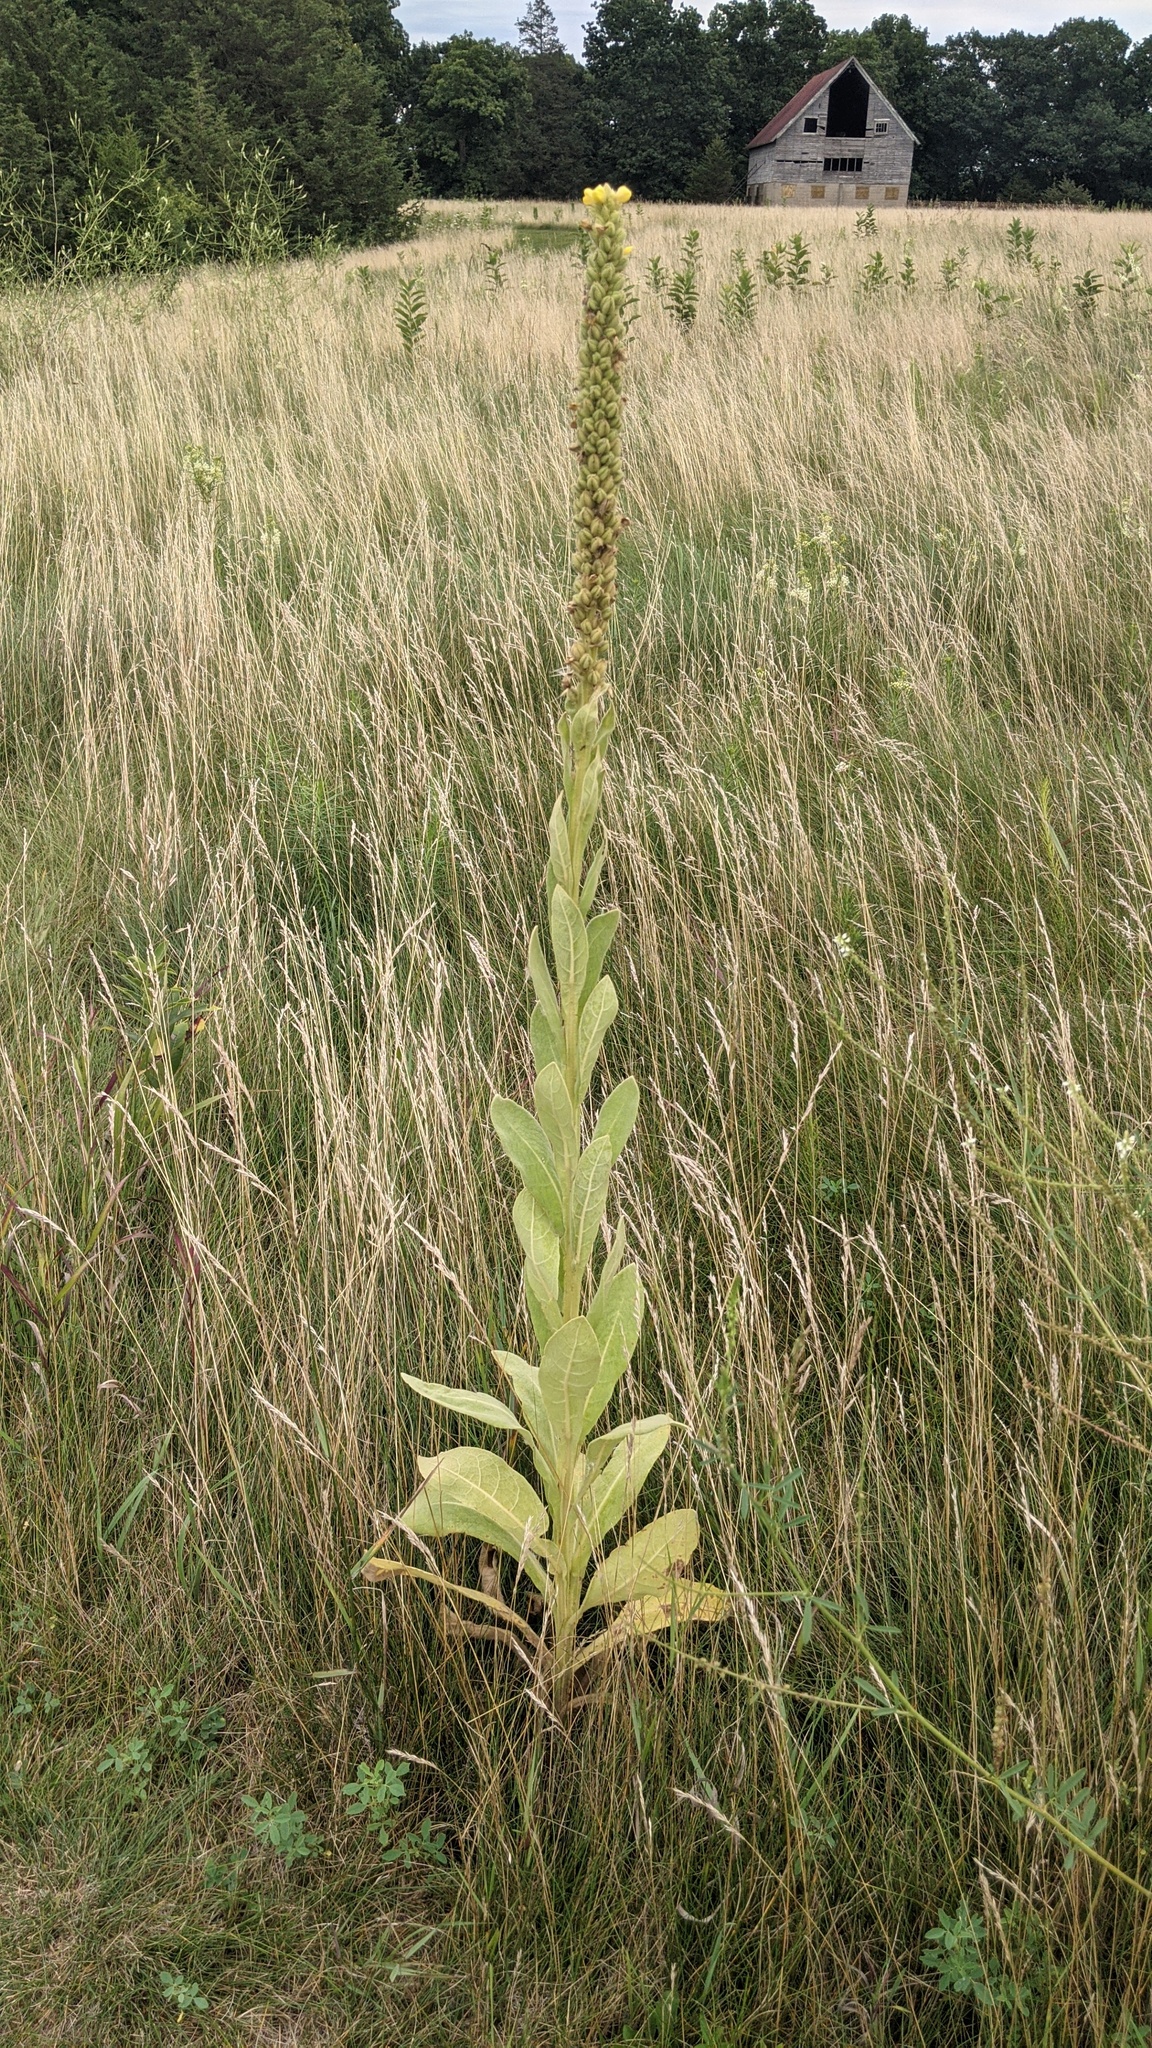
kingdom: Plantae
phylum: Tracheophyta
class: Magnoliopsida
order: Lamiales
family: Scrophulariaceae
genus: Verbascum
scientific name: Verbascum thapsus
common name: Common mullein
